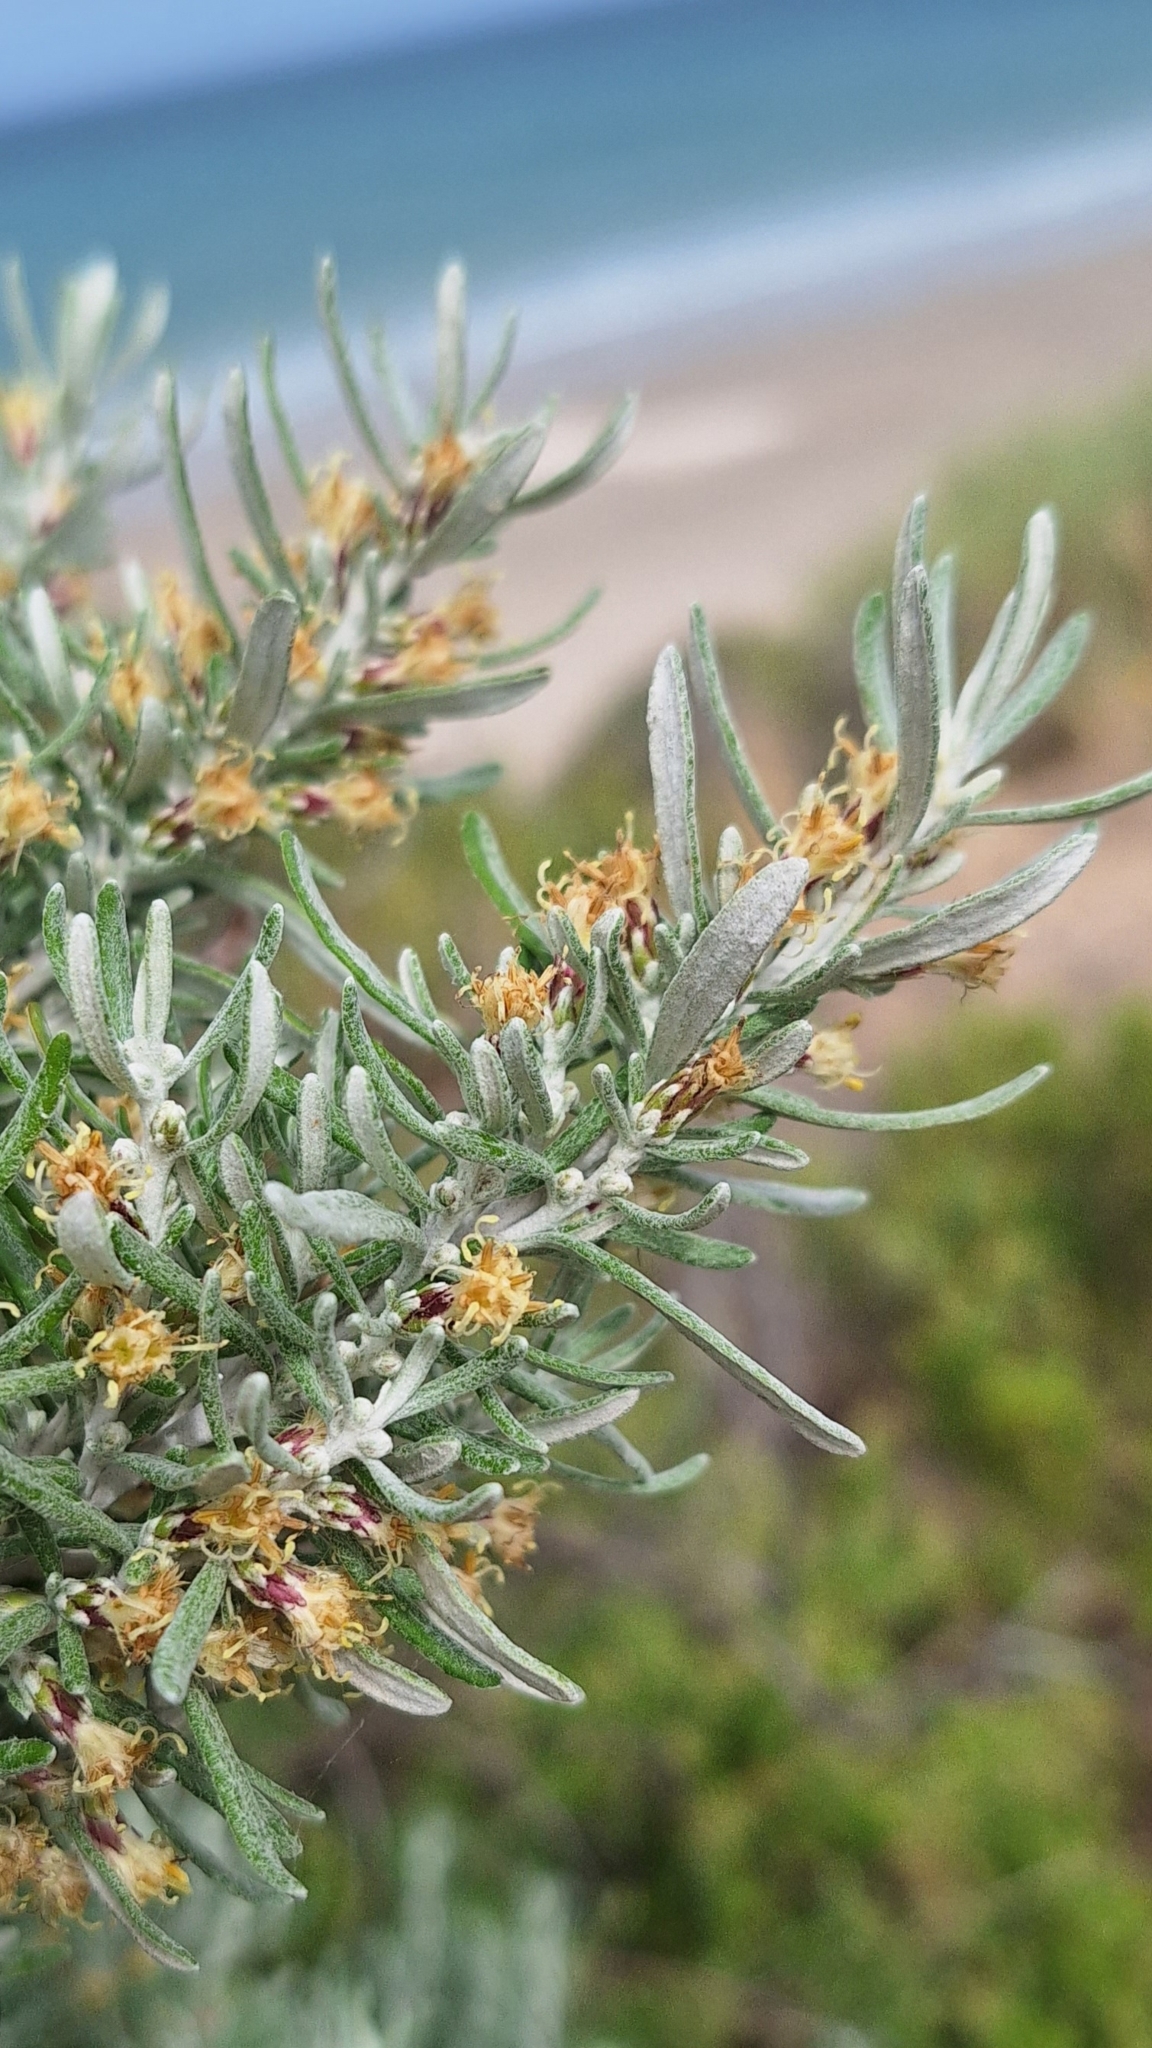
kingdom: Plantae
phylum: Tracheophyta
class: Magnoliopsida
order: Asterales
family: Asteraceae
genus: Olearia
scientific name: Olearia axillaris
